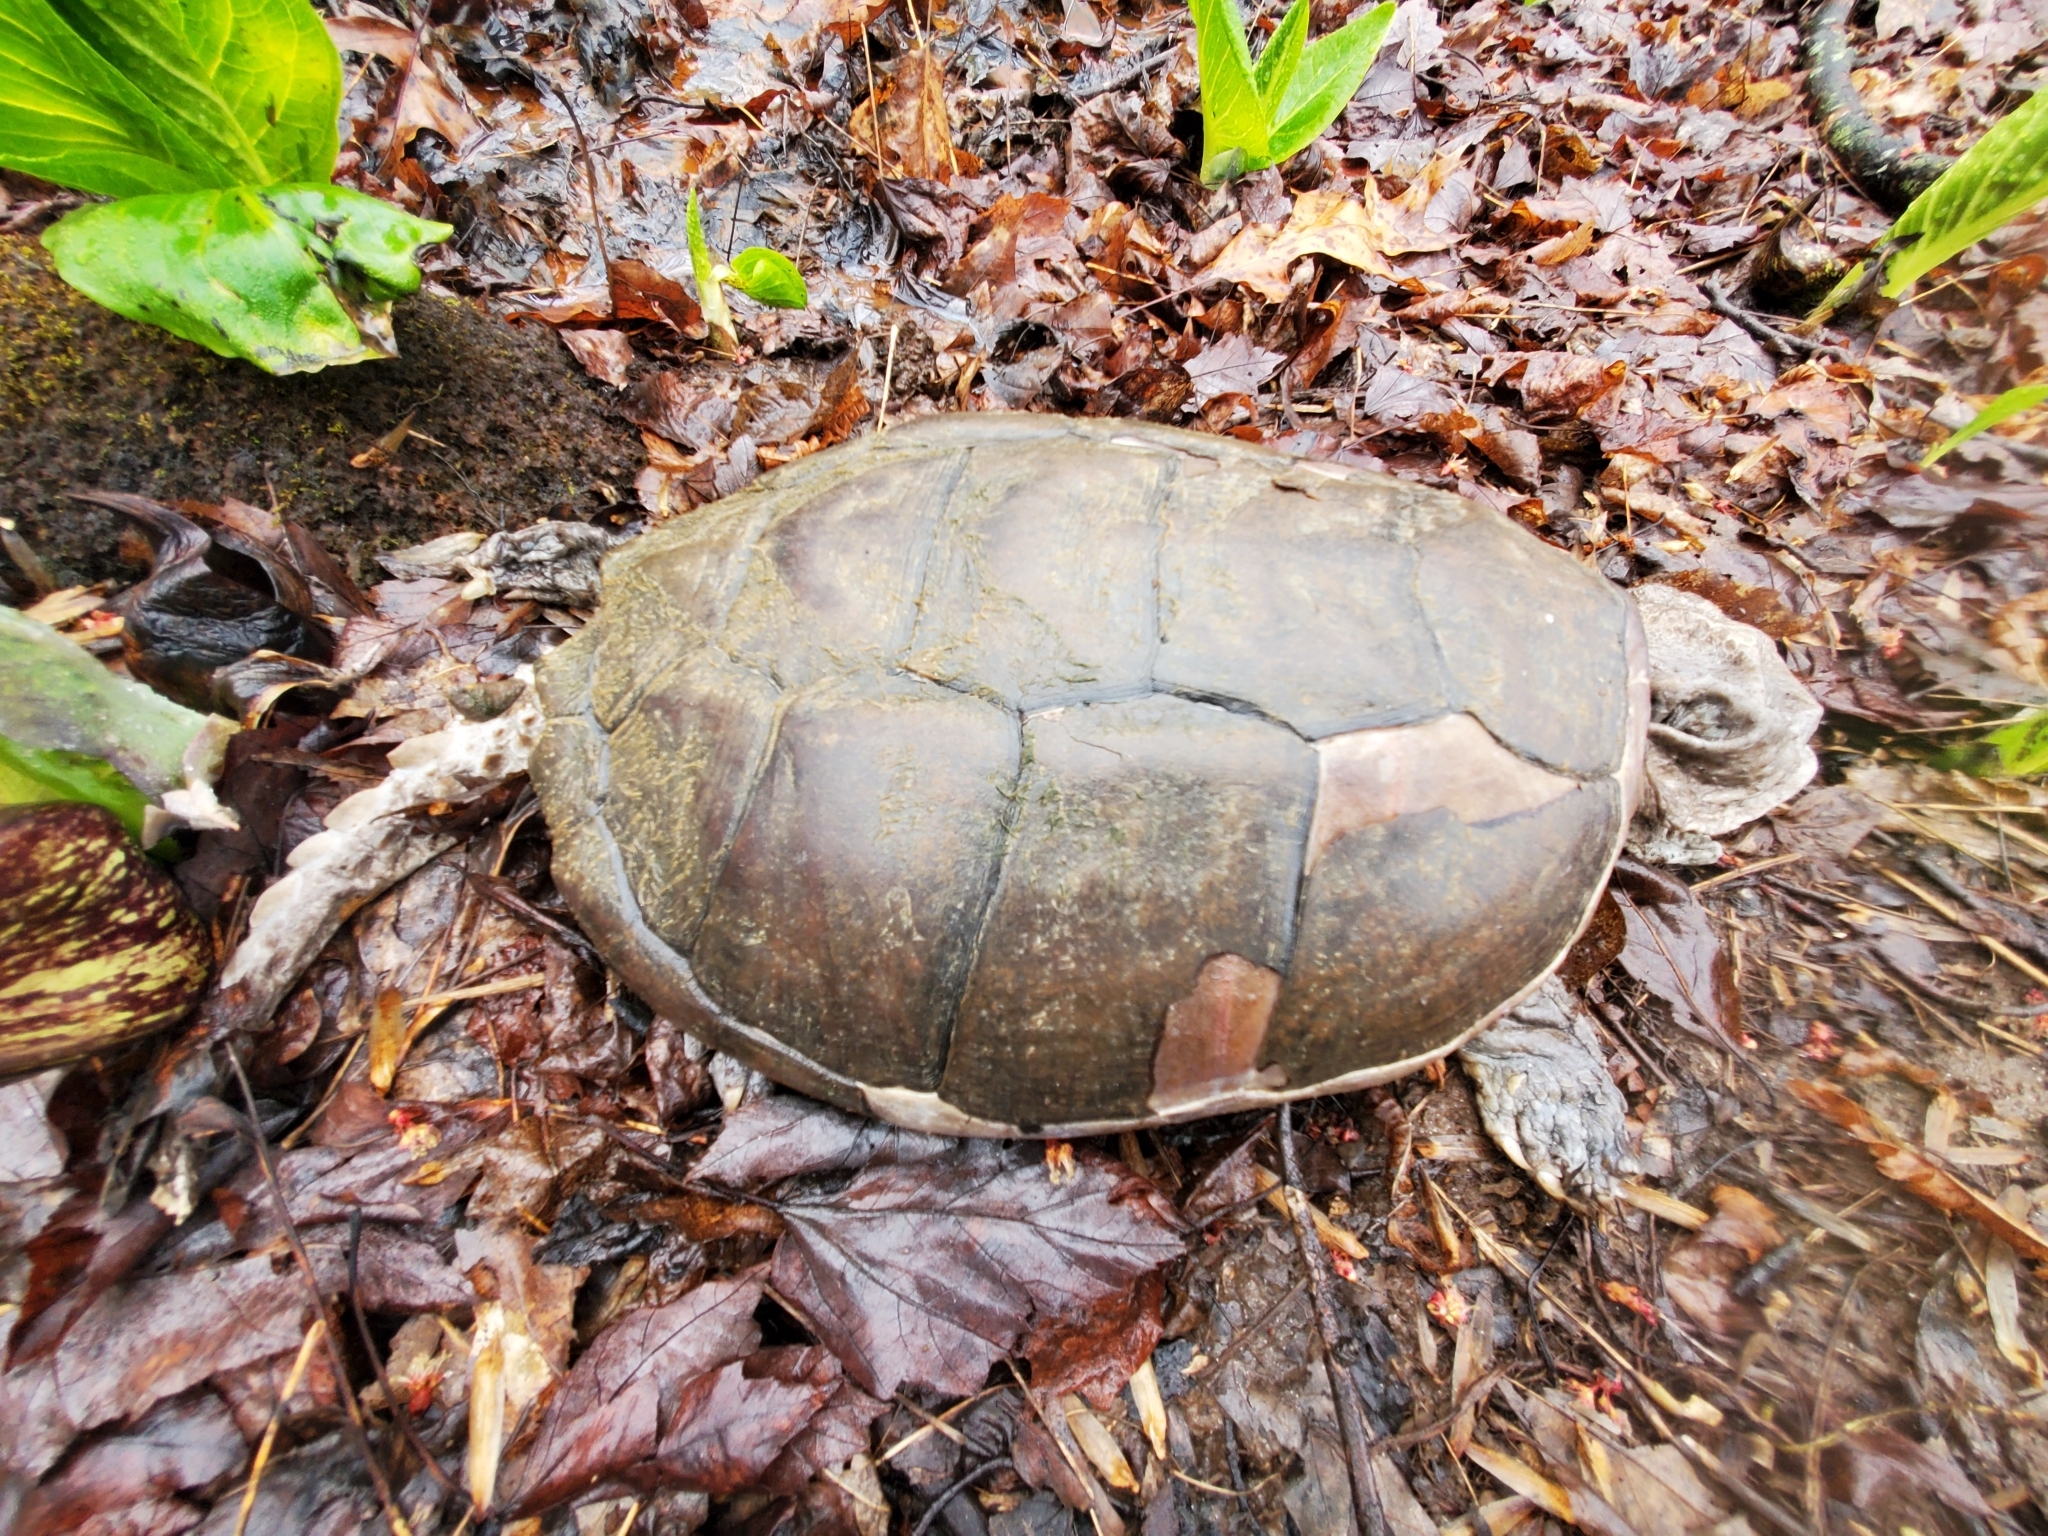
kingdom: Animalia
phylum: Chordata
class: Testudines
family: Chelydridae
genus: Chelydra
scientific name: Chelydra serpentina
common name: Common snapping turtle
